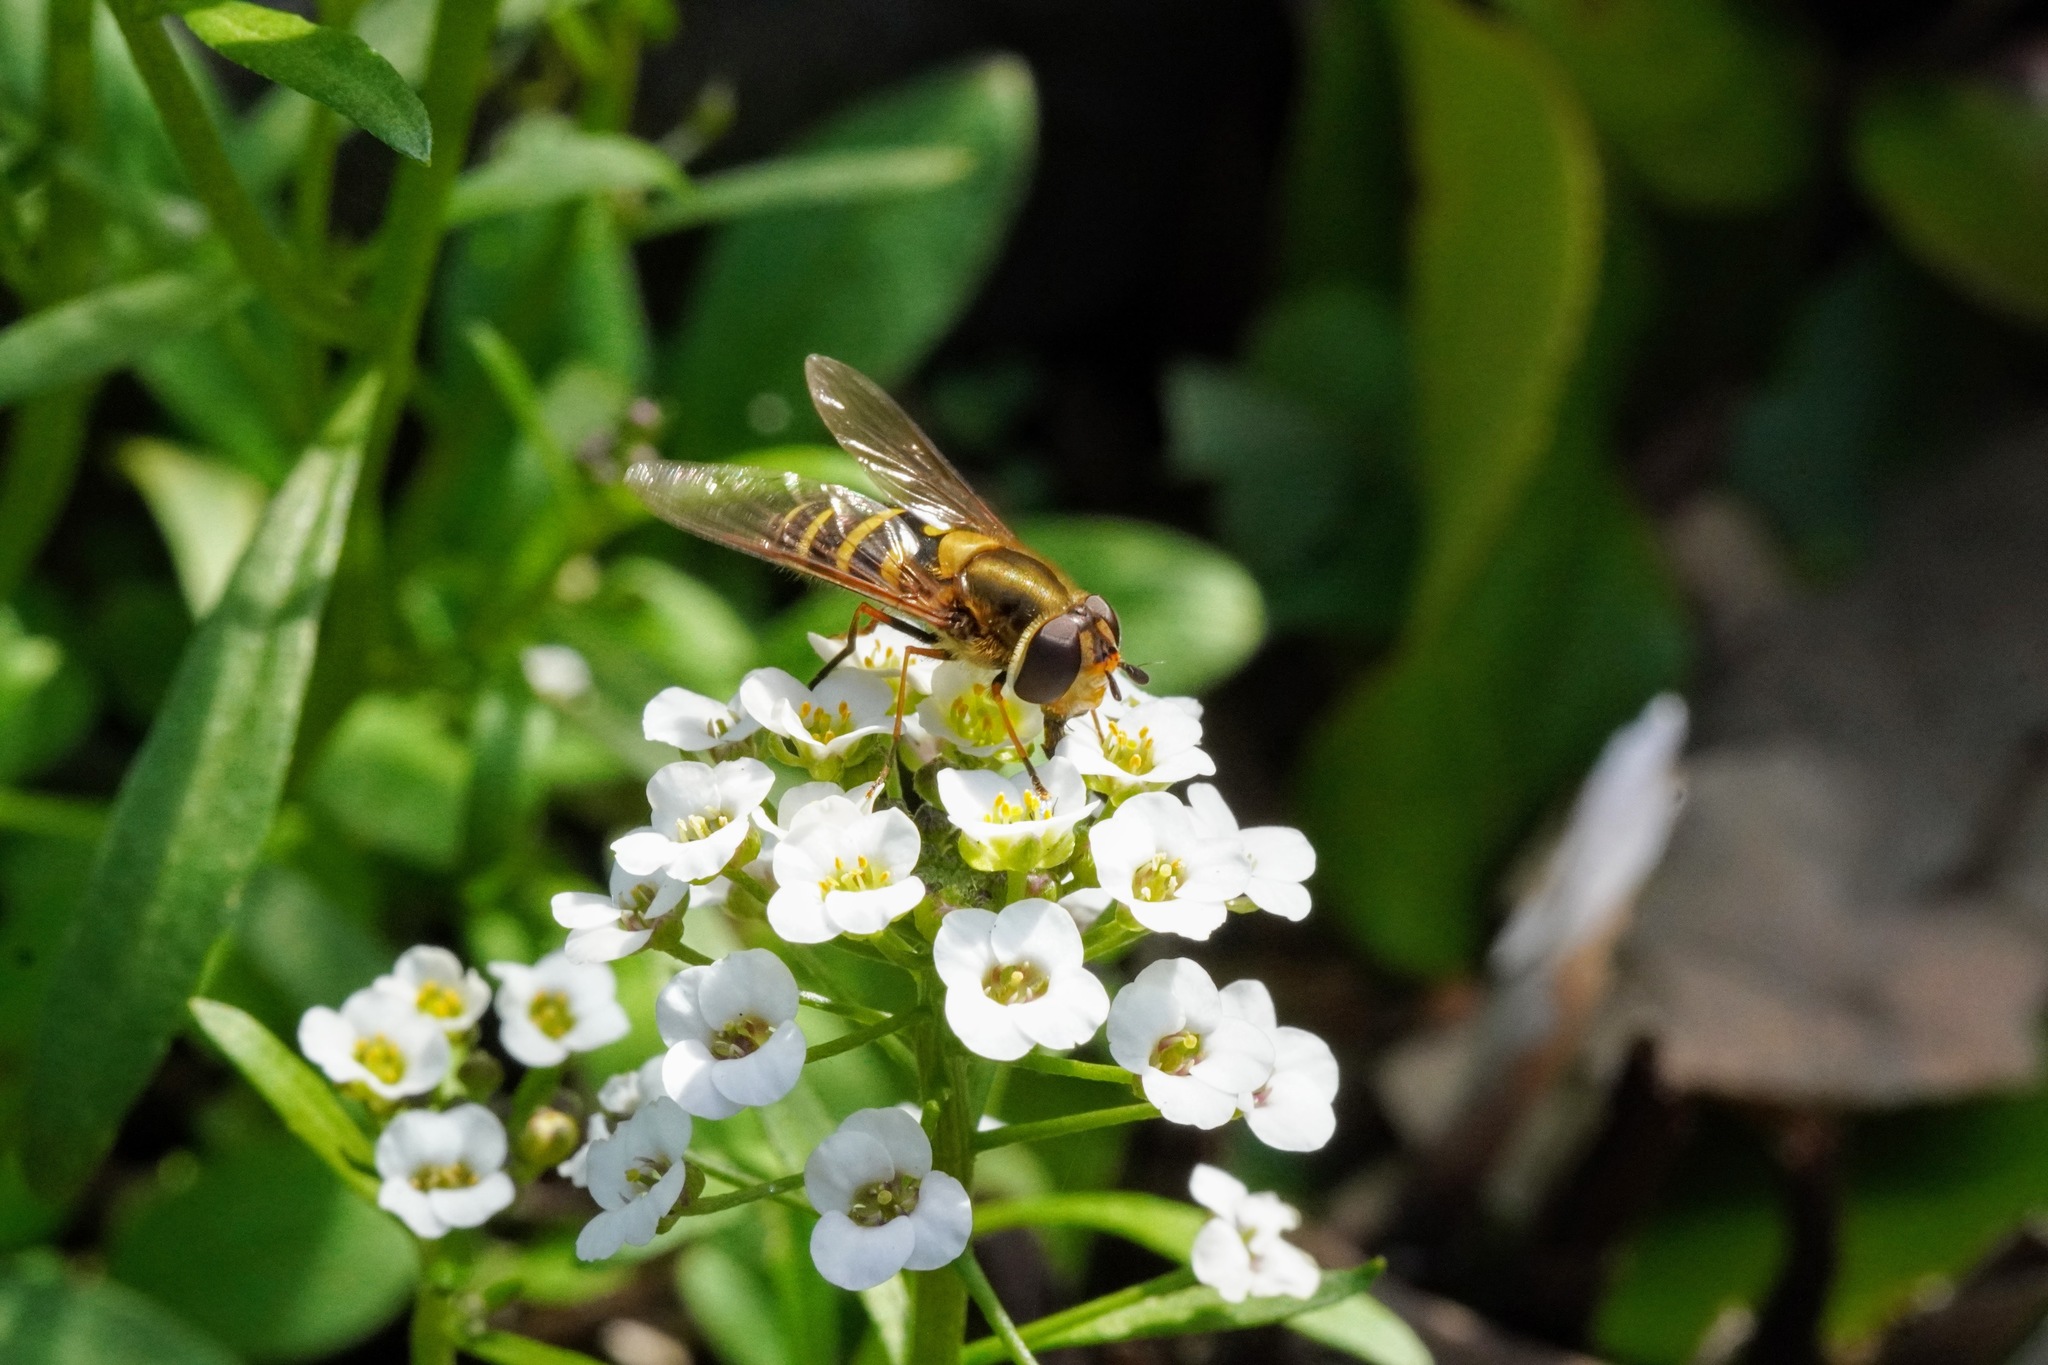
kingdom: Animalia
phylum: Arthropoda
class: Insecta
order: Diptera
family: Syrphidae
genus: Syrphus
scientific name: Syrphus
